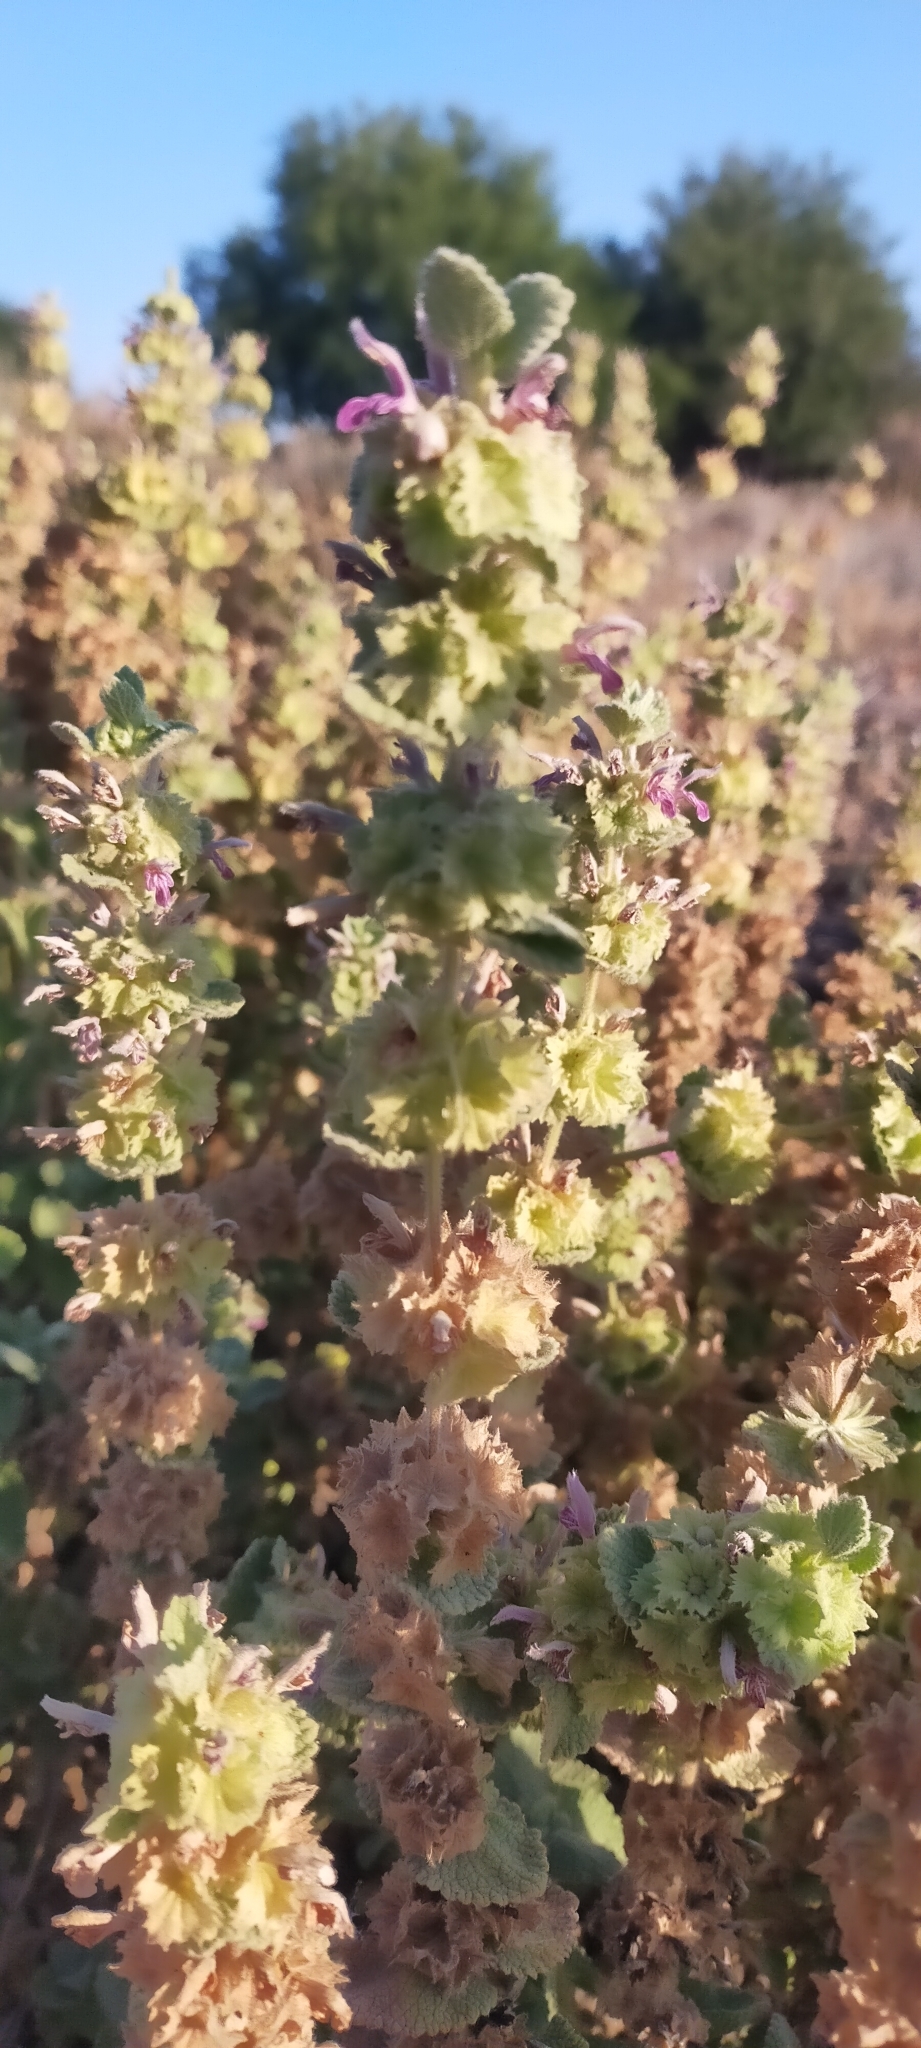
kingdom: Plantae
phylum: Tracheophyta
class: Magnoliopsida
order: Lamiales
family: Lamiaceae
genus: Pseudodictamnus
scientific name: Pseudodictamnus hirsutus
